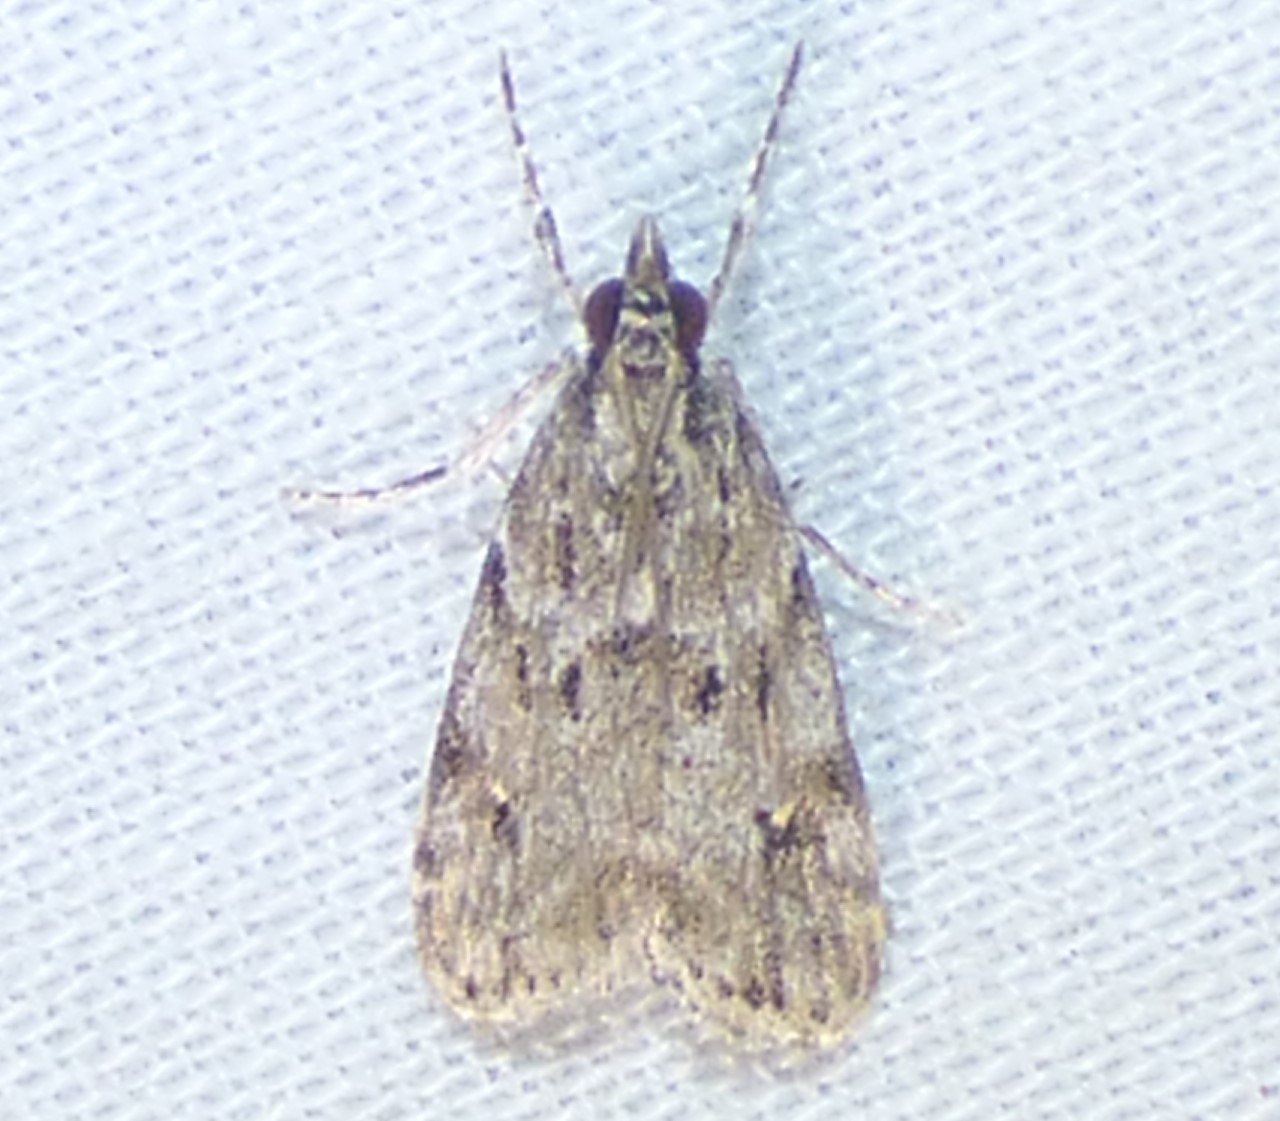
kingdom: Animalia
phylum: Arthropoda
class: Insecta
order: Lepidoptera
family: Crambidae
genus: Scoparia
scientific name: Scoparia biplagialis
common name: Double-striped scoparia moth
